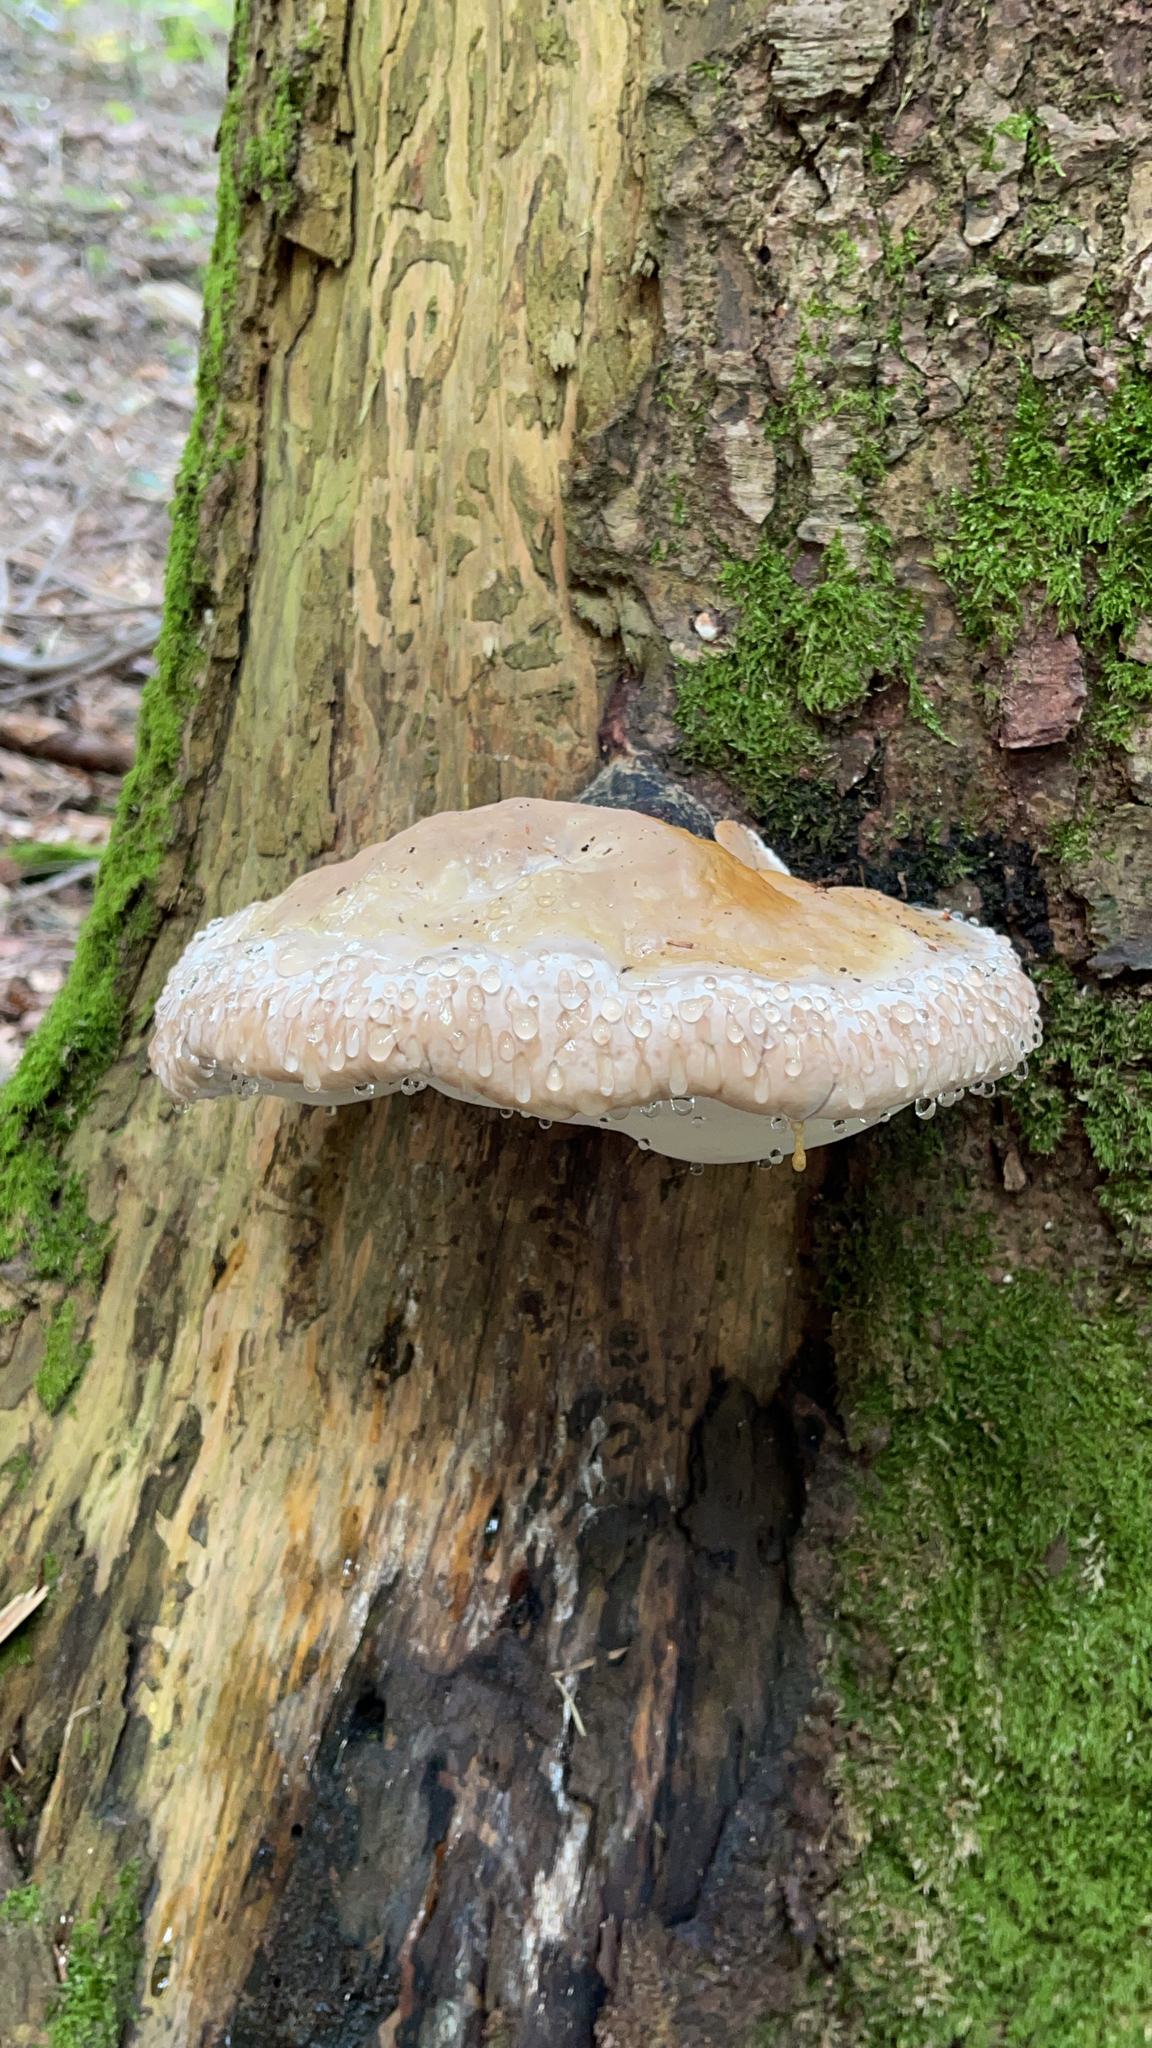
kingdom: Fungi
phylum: Basidiomycota
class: Agaricomycetes
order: Polyporales
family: Fomitopsidaceae
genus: Fomitopsis
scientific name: Fomitopsis pinicola
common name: Red-belted bracket
